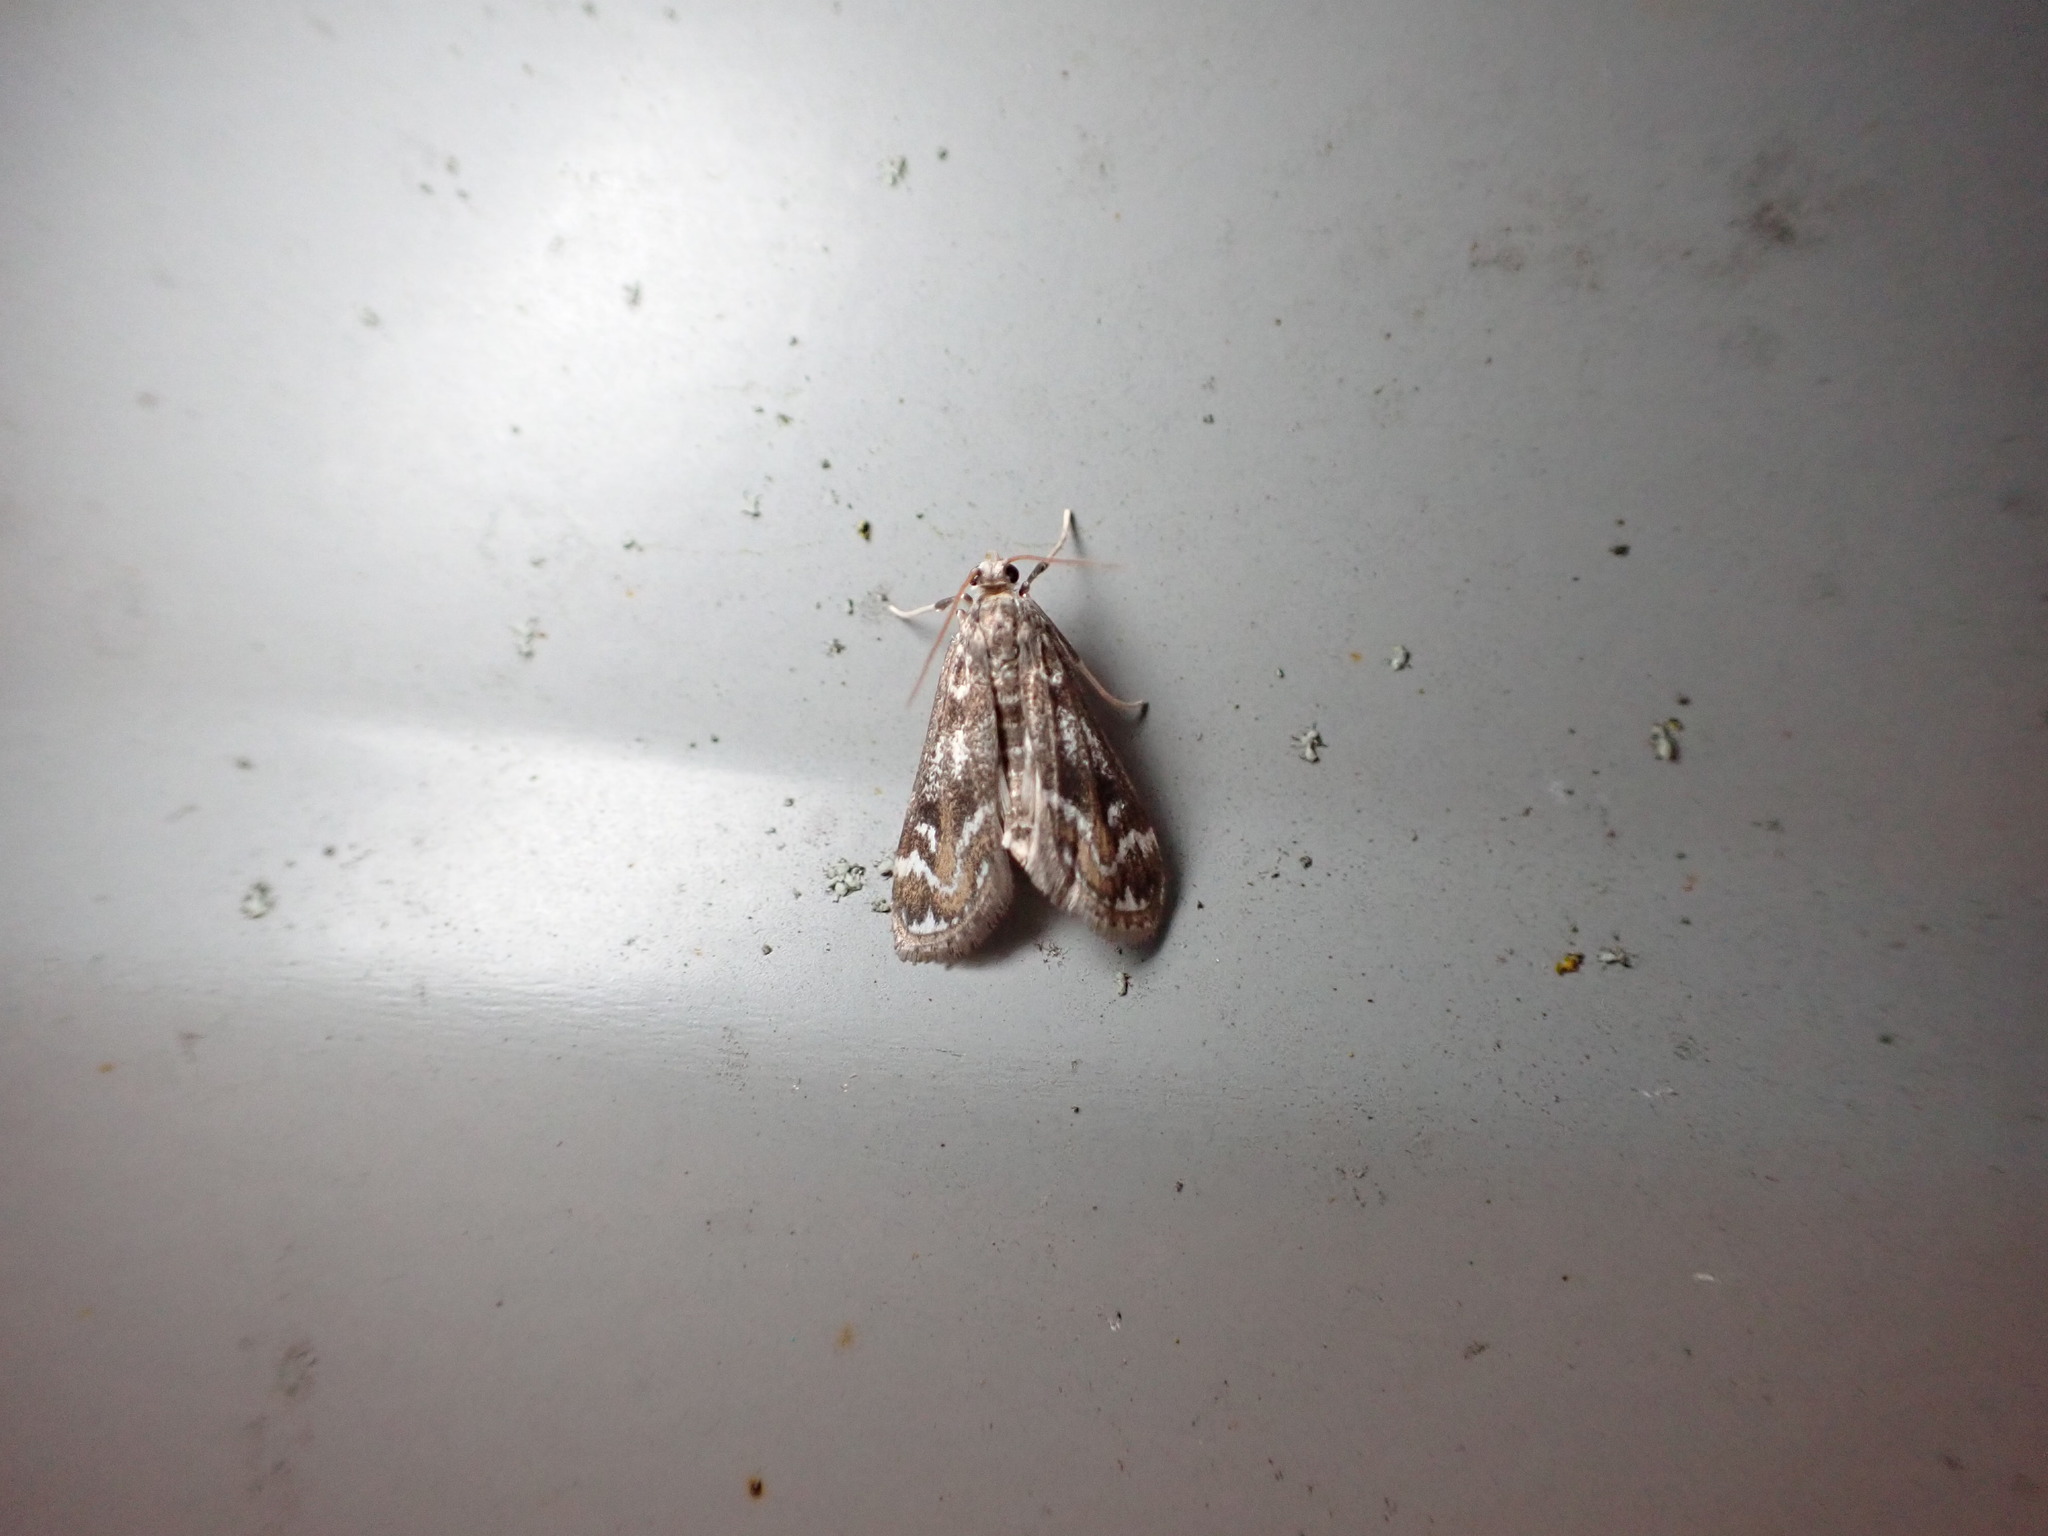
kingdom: Animalia
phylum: Arthropoda
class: Insecta
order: Lepidoptera
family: Crambidae
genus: Hygraula
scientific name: Hygraula nitens
